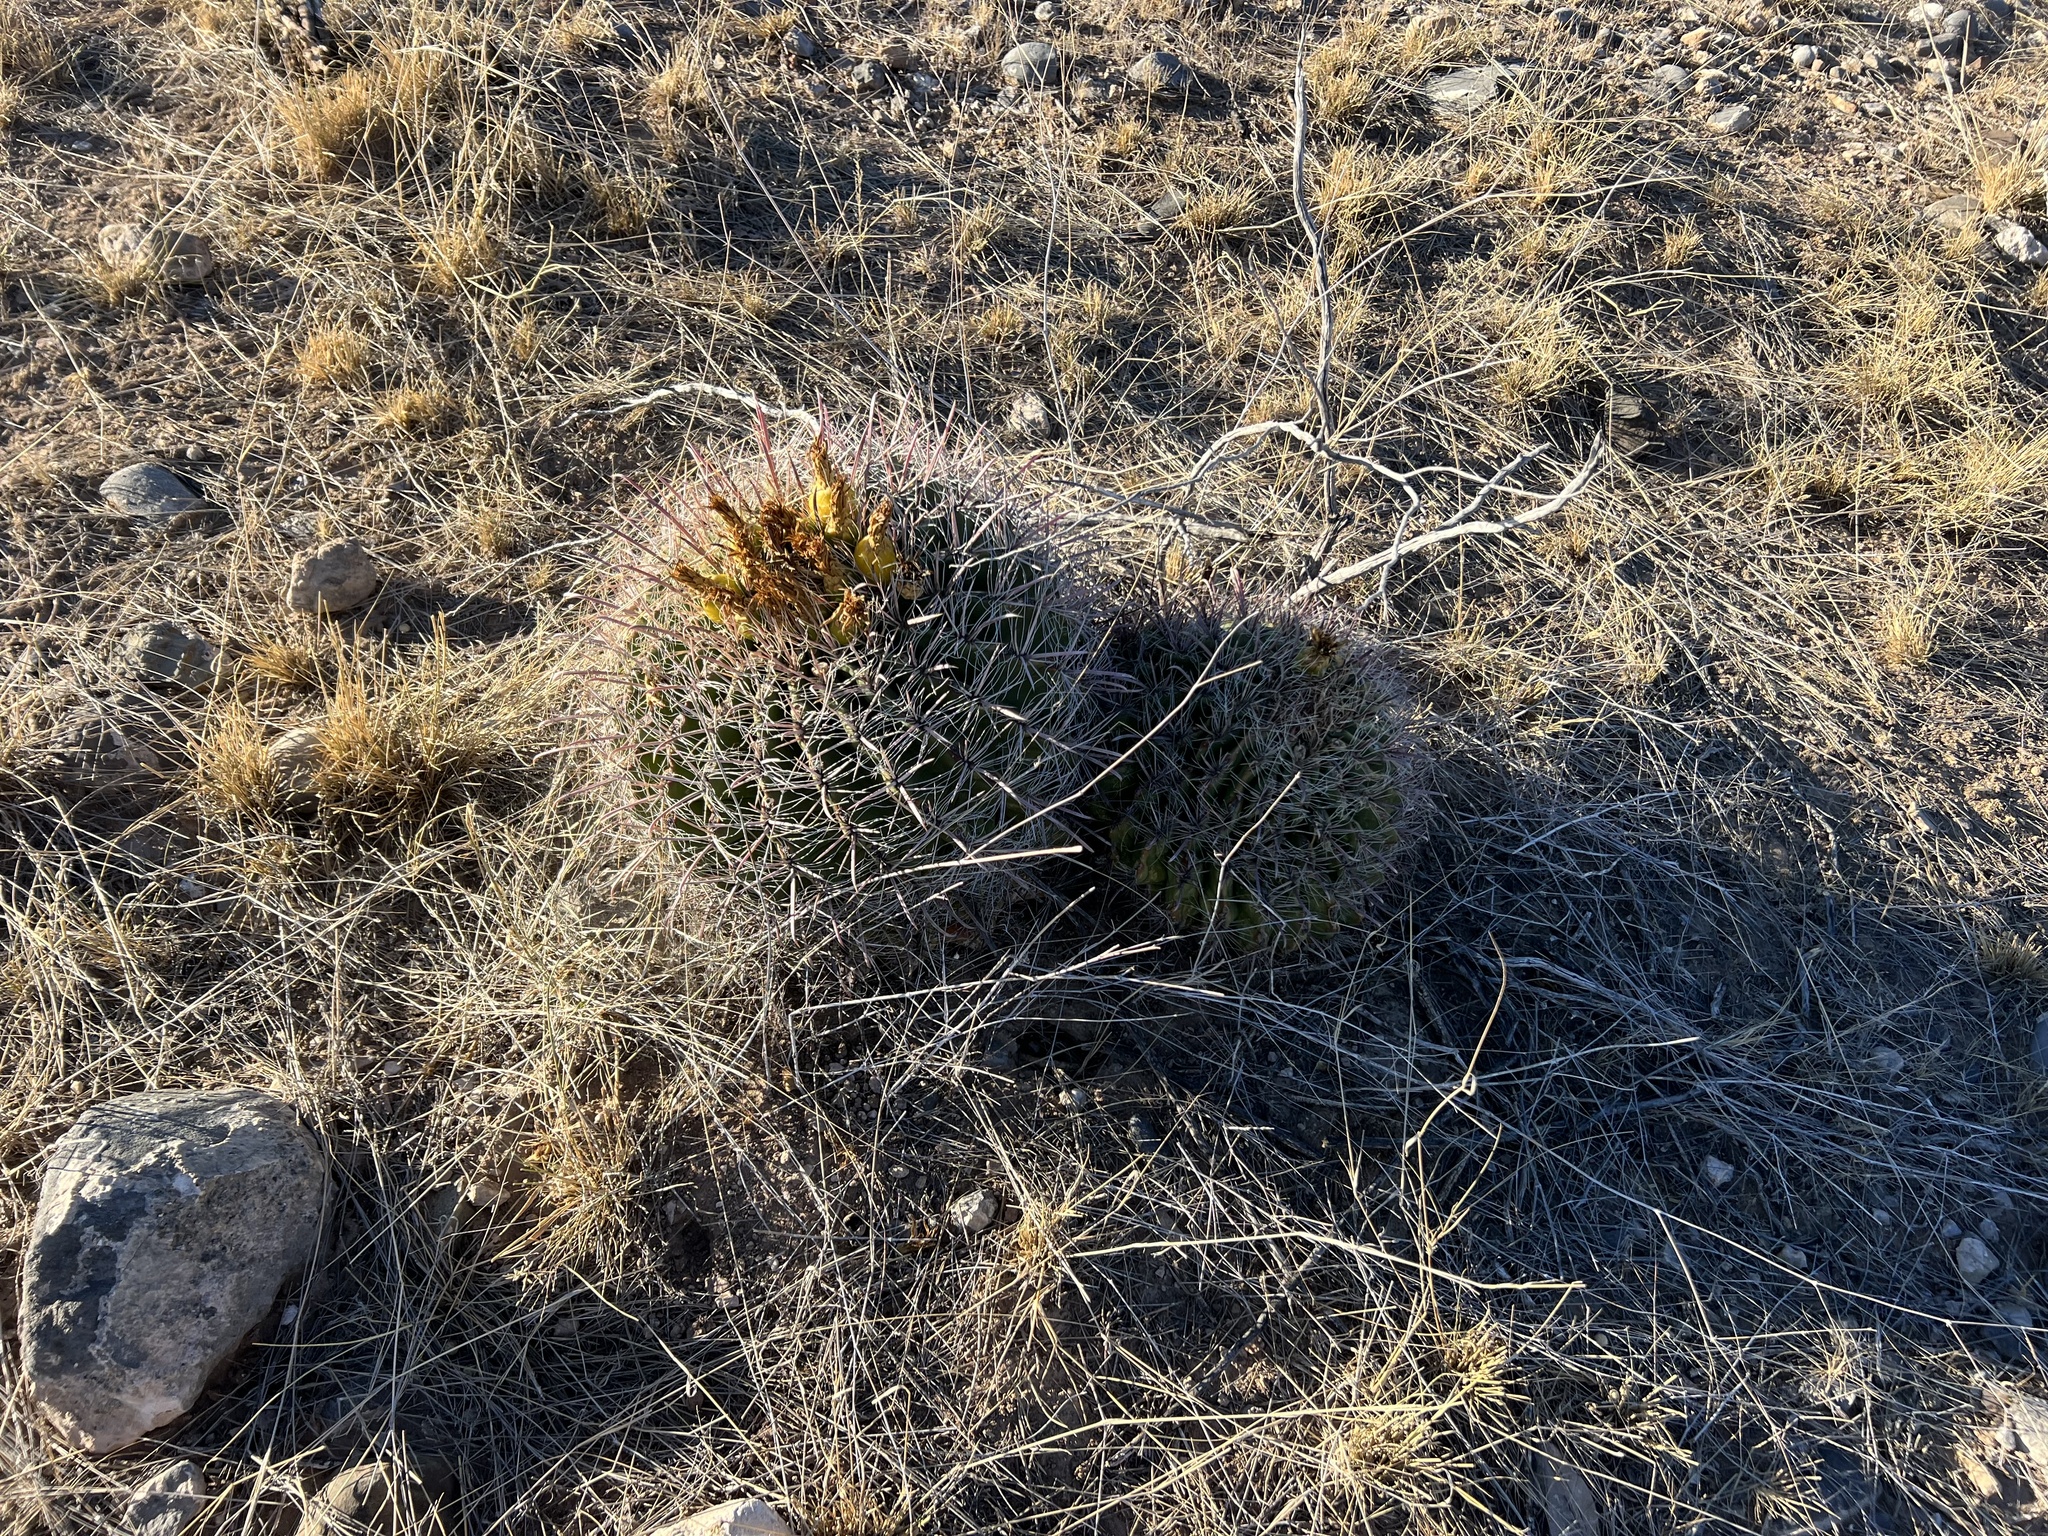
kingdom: Plantae
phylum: Tracheophyta
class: Magnoliopsida
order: Caryophyllales
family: Cactaceae
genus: Ferocactus
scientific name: Ferocactus wislizeni
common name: Candy barrel cactus
